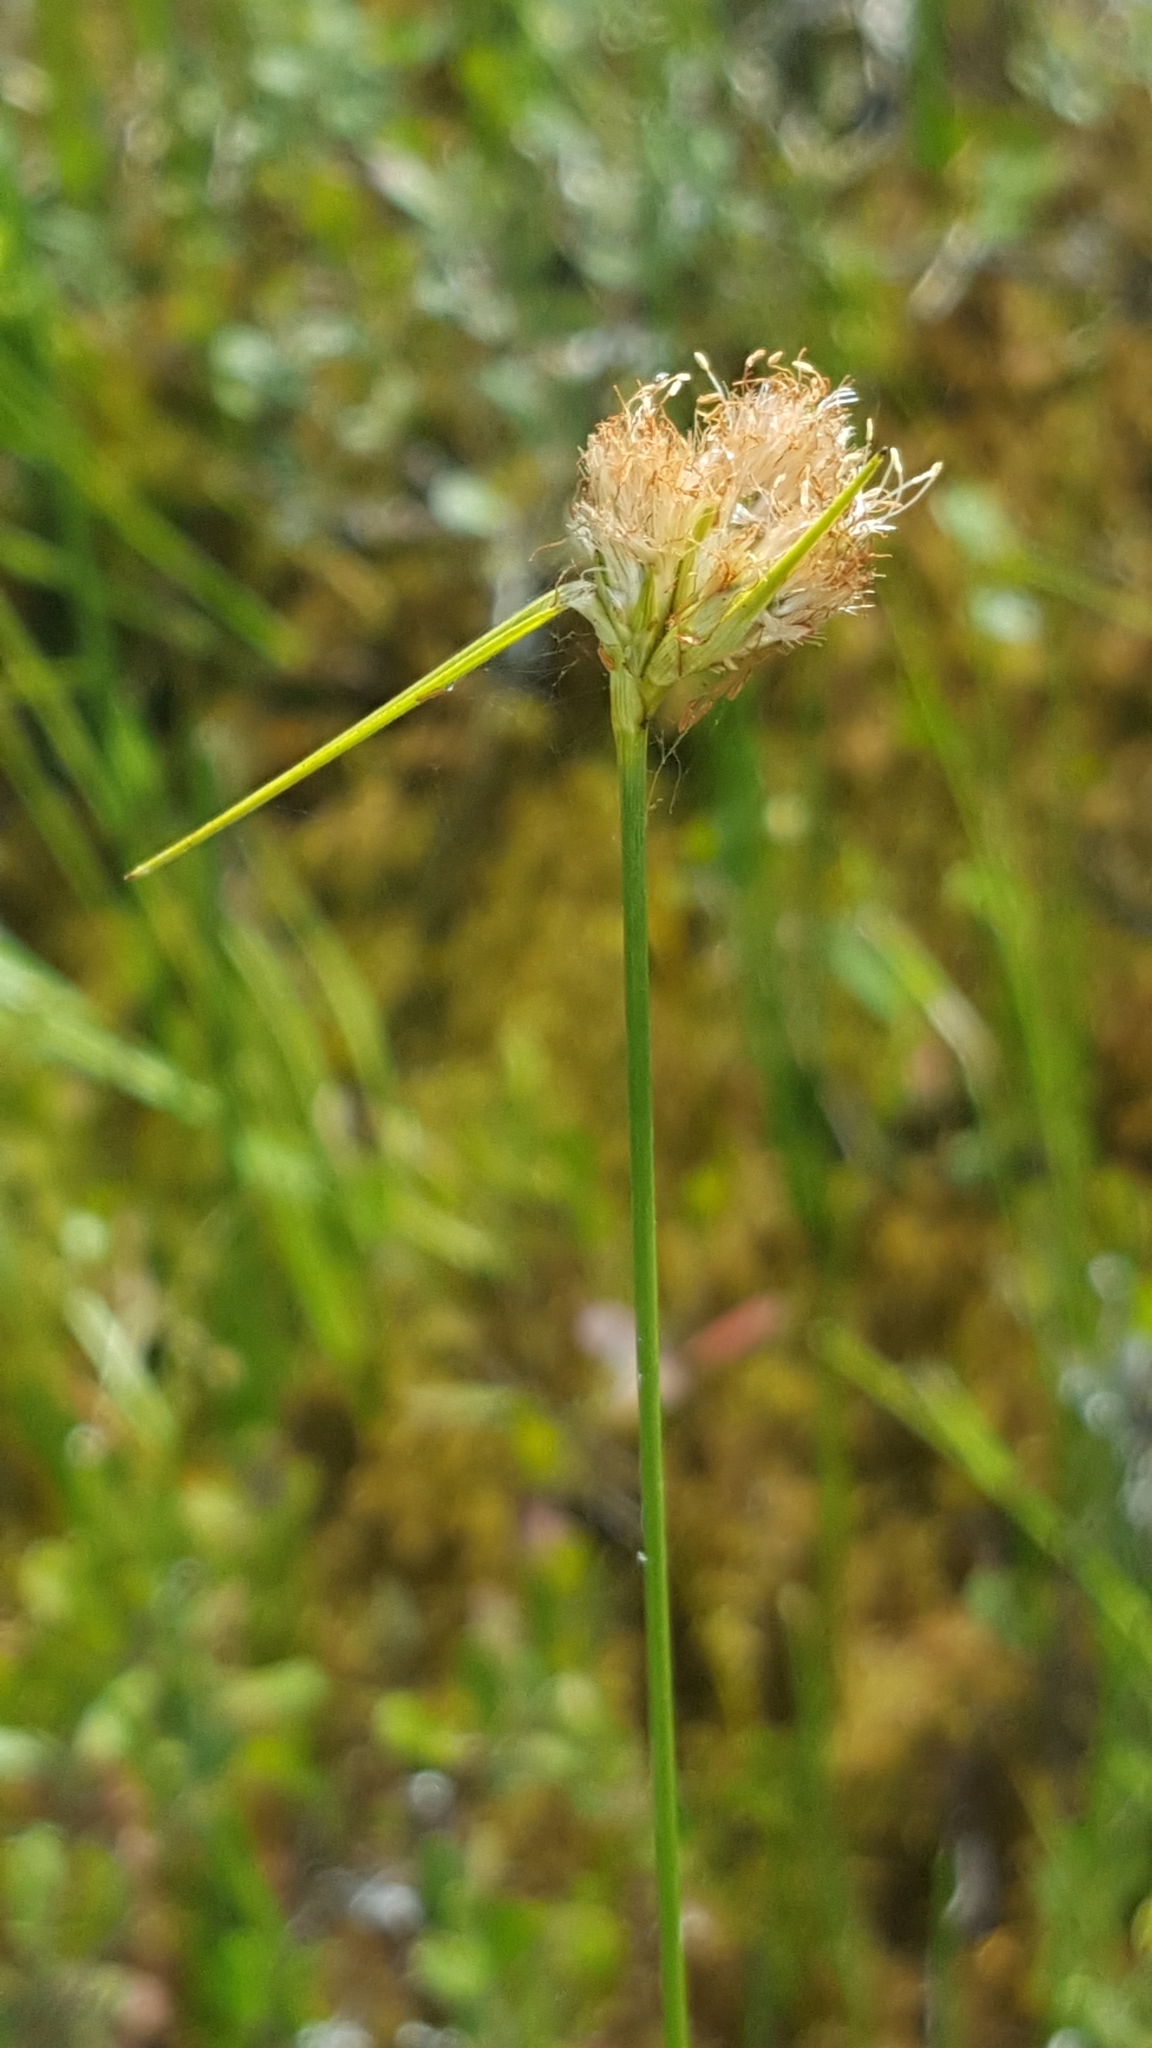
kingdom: Plantae
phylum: Tracheophyta
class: Liliopsida
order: Poales
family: Cyperaceae
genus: Eriophorum
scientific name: Eriophorum virginicum
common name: Tawny cottongrass
